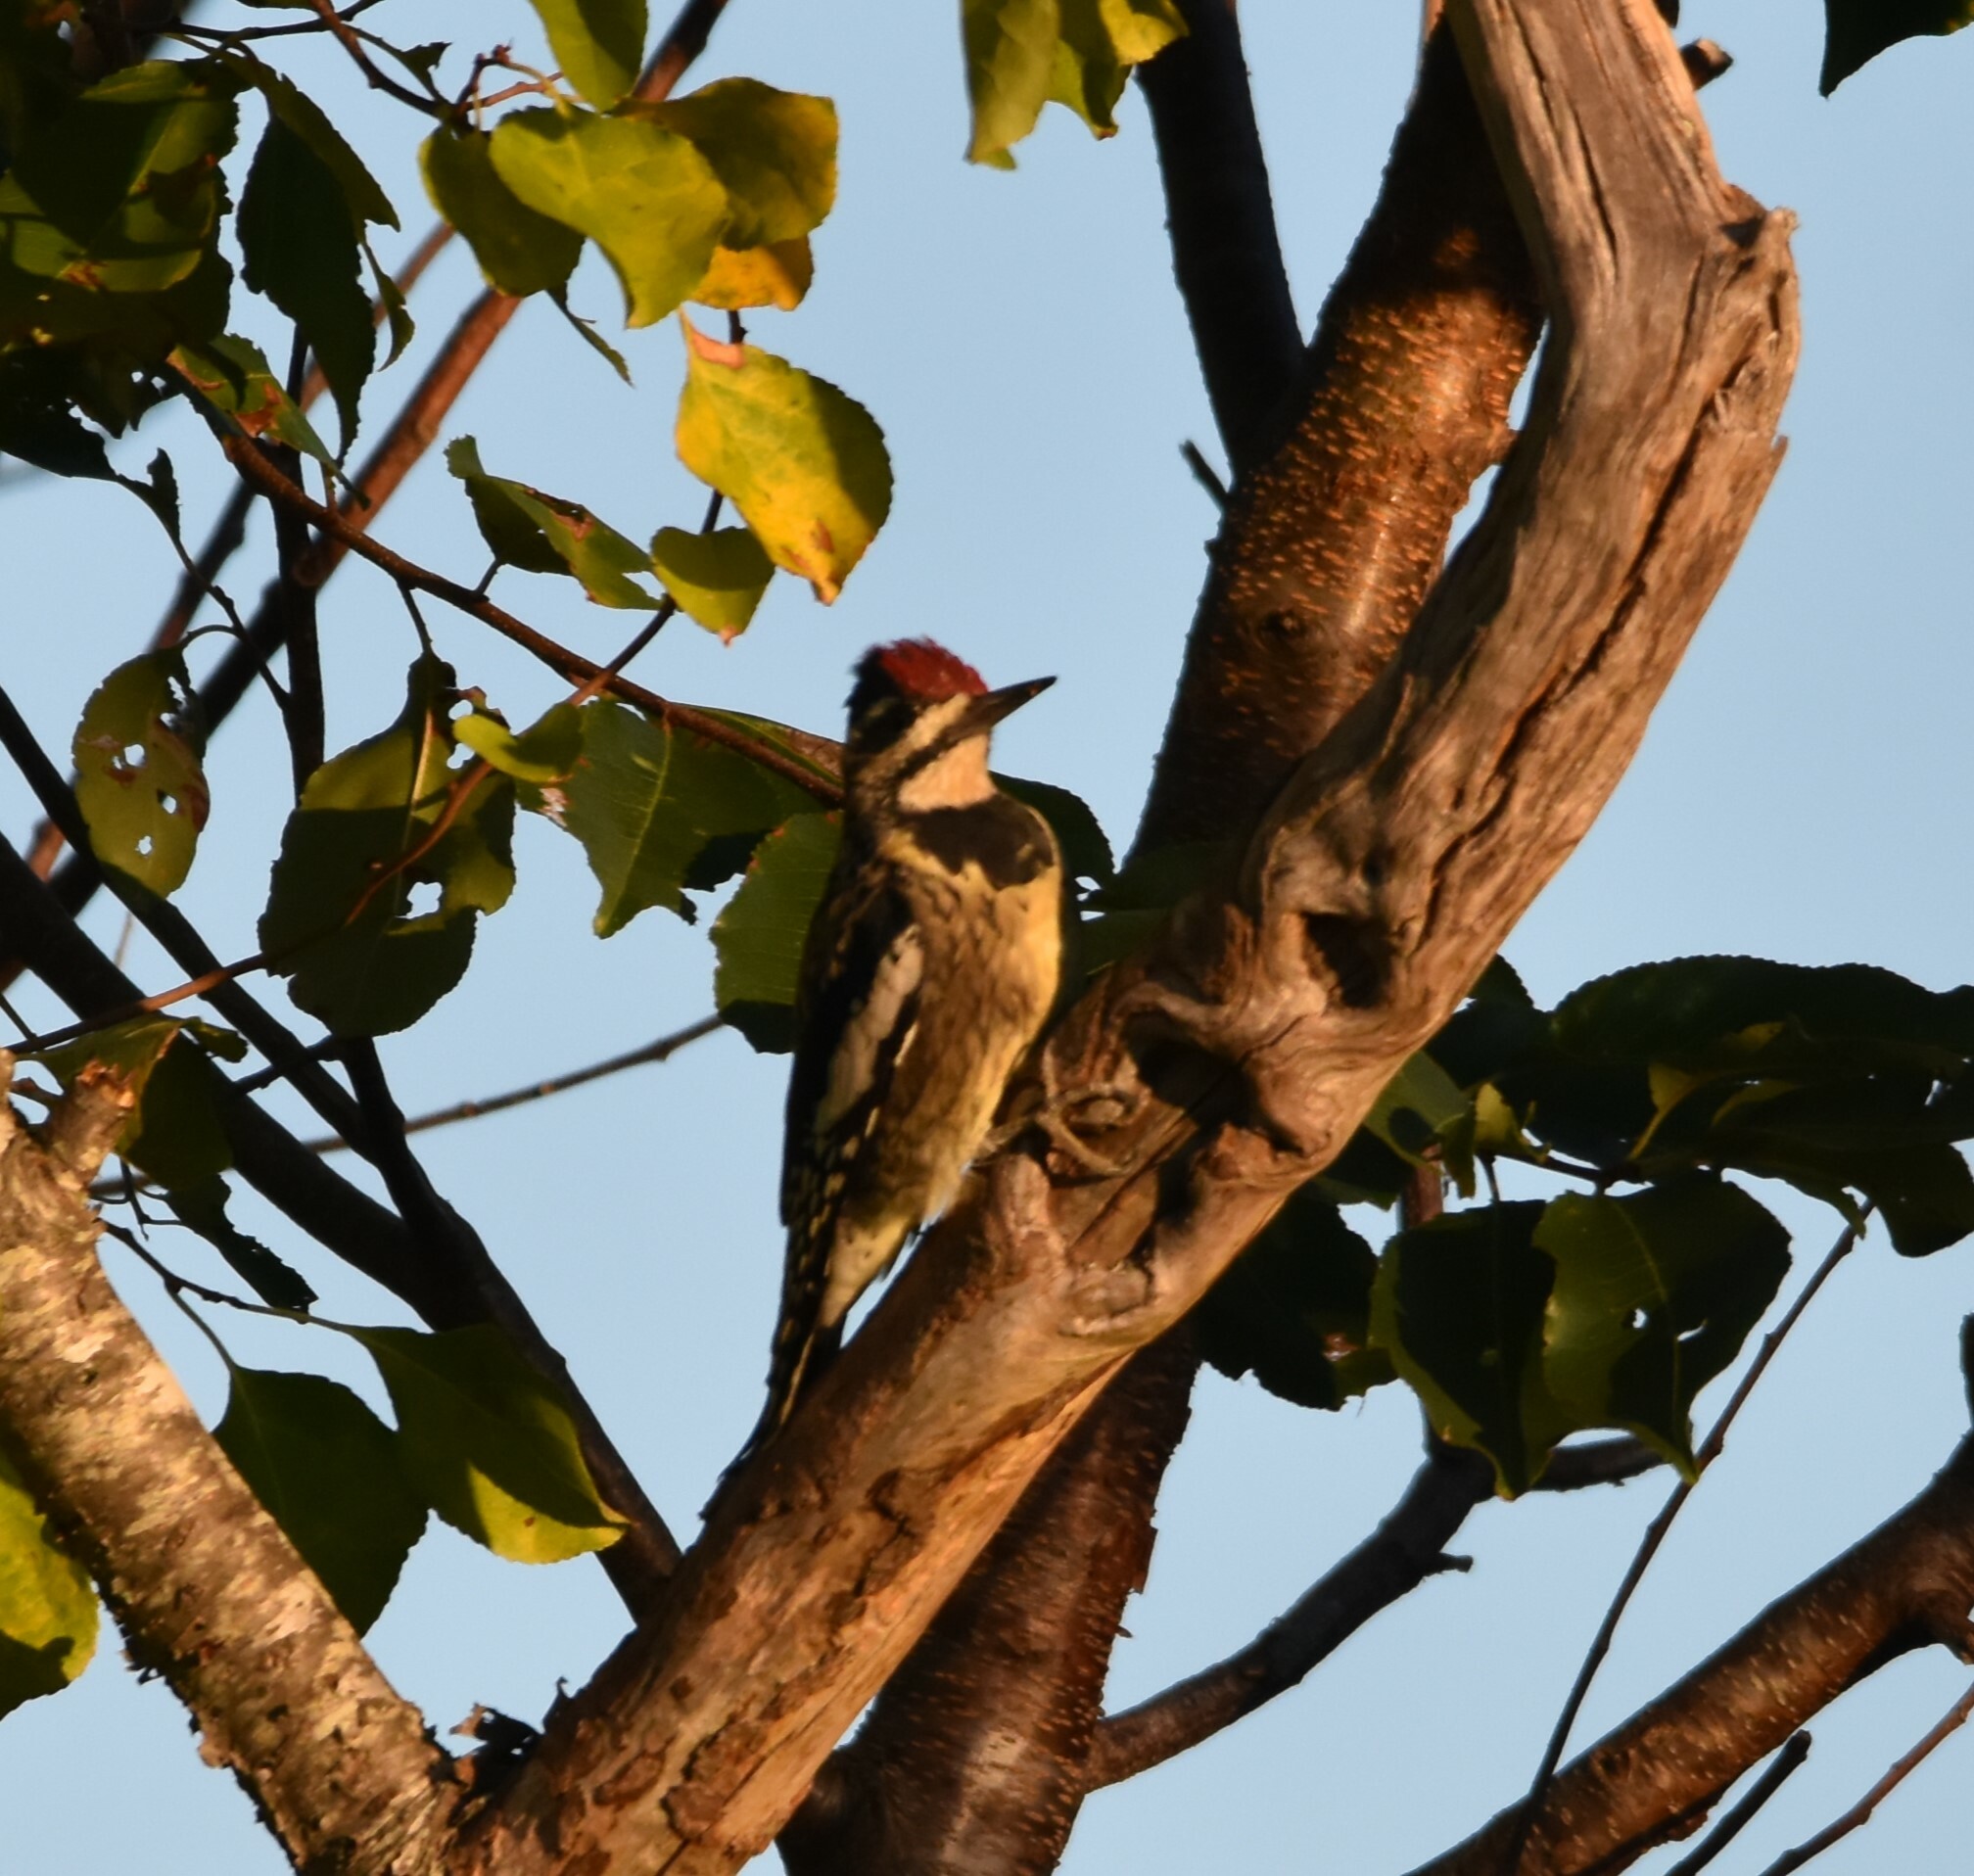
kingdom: Animalia
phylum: Chordata
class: Aves
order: Piciformes
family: Picidae
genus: Sphyrapicus
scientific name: Sphyrapicus varius
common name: Yellow-bellied sapsucker
